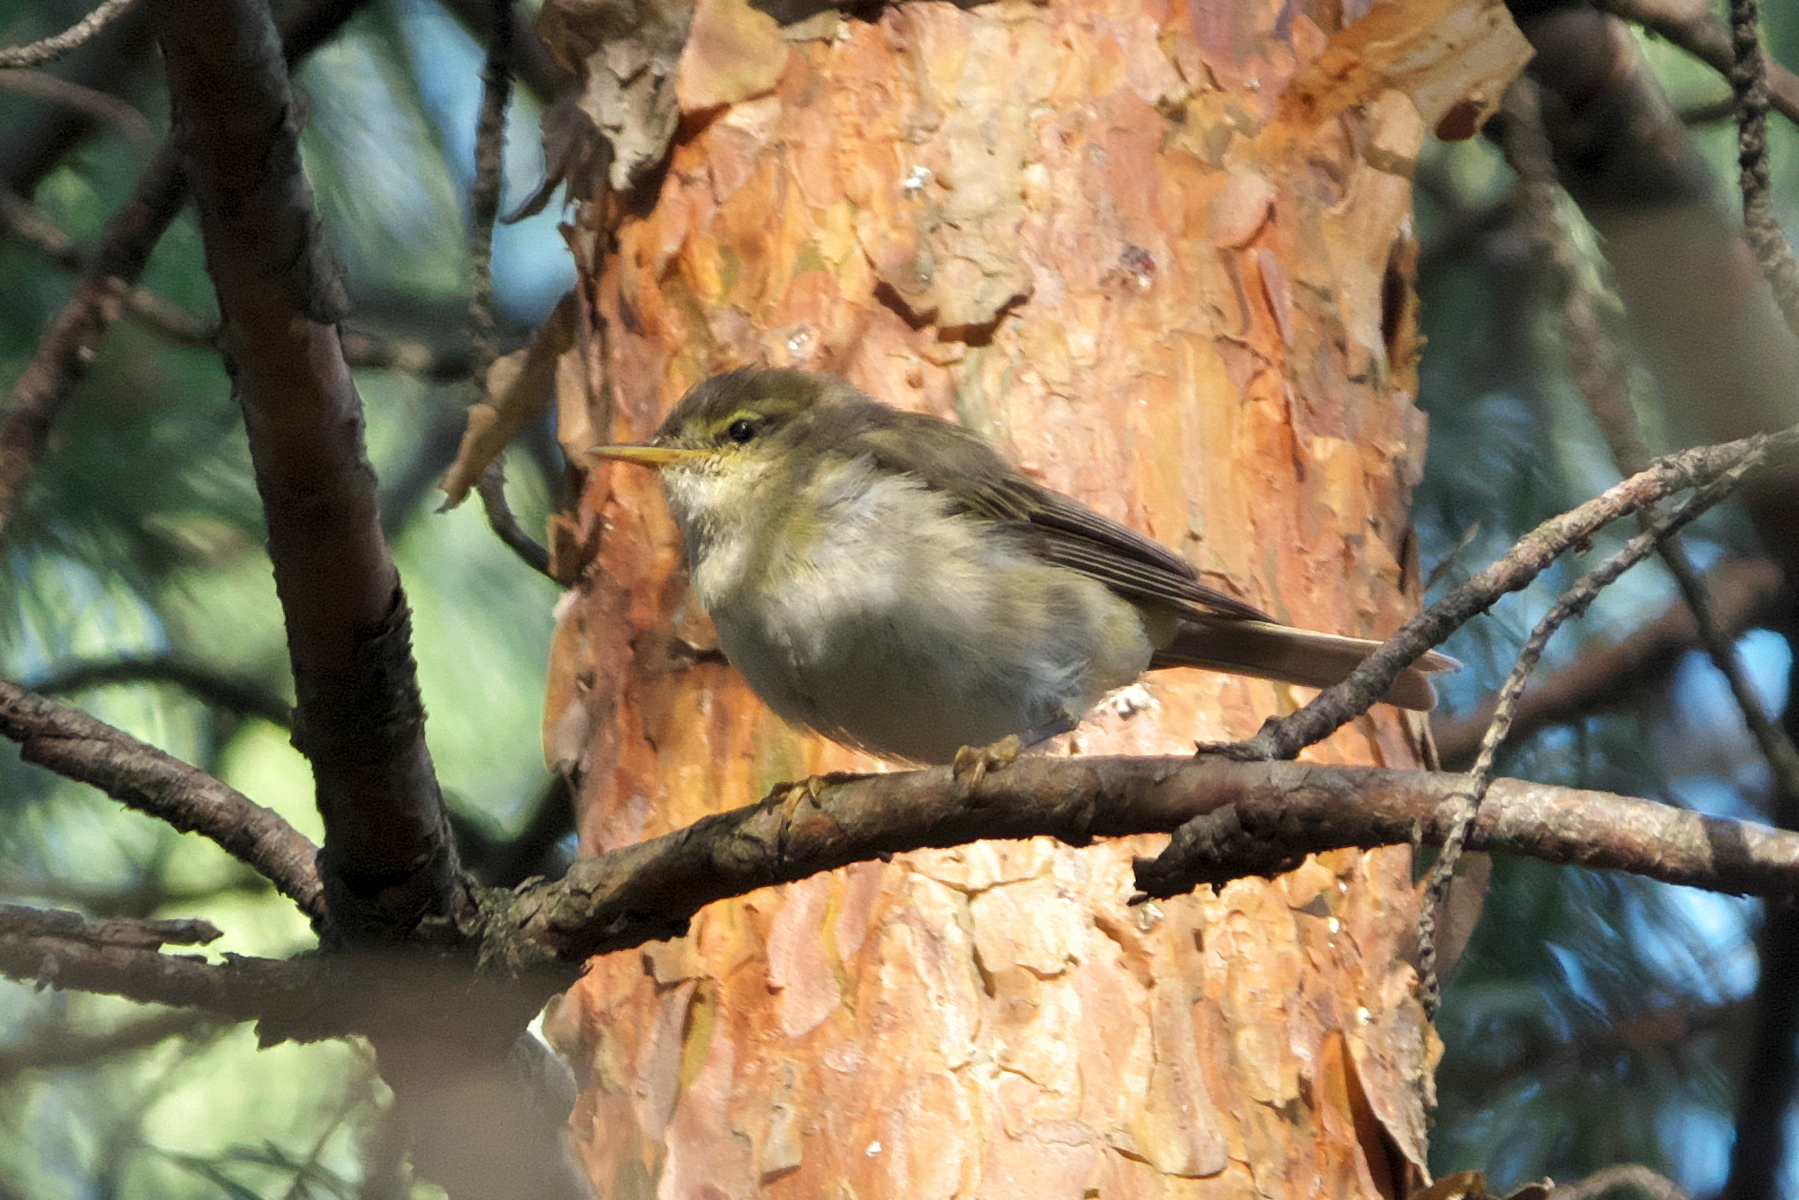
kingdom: Animalia
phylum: Chordata
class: Aves
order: Passeriformes
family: Phylloscopidae
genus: Phylloscopus
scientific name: Phylloscopus trochilus
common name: Willow warbler
